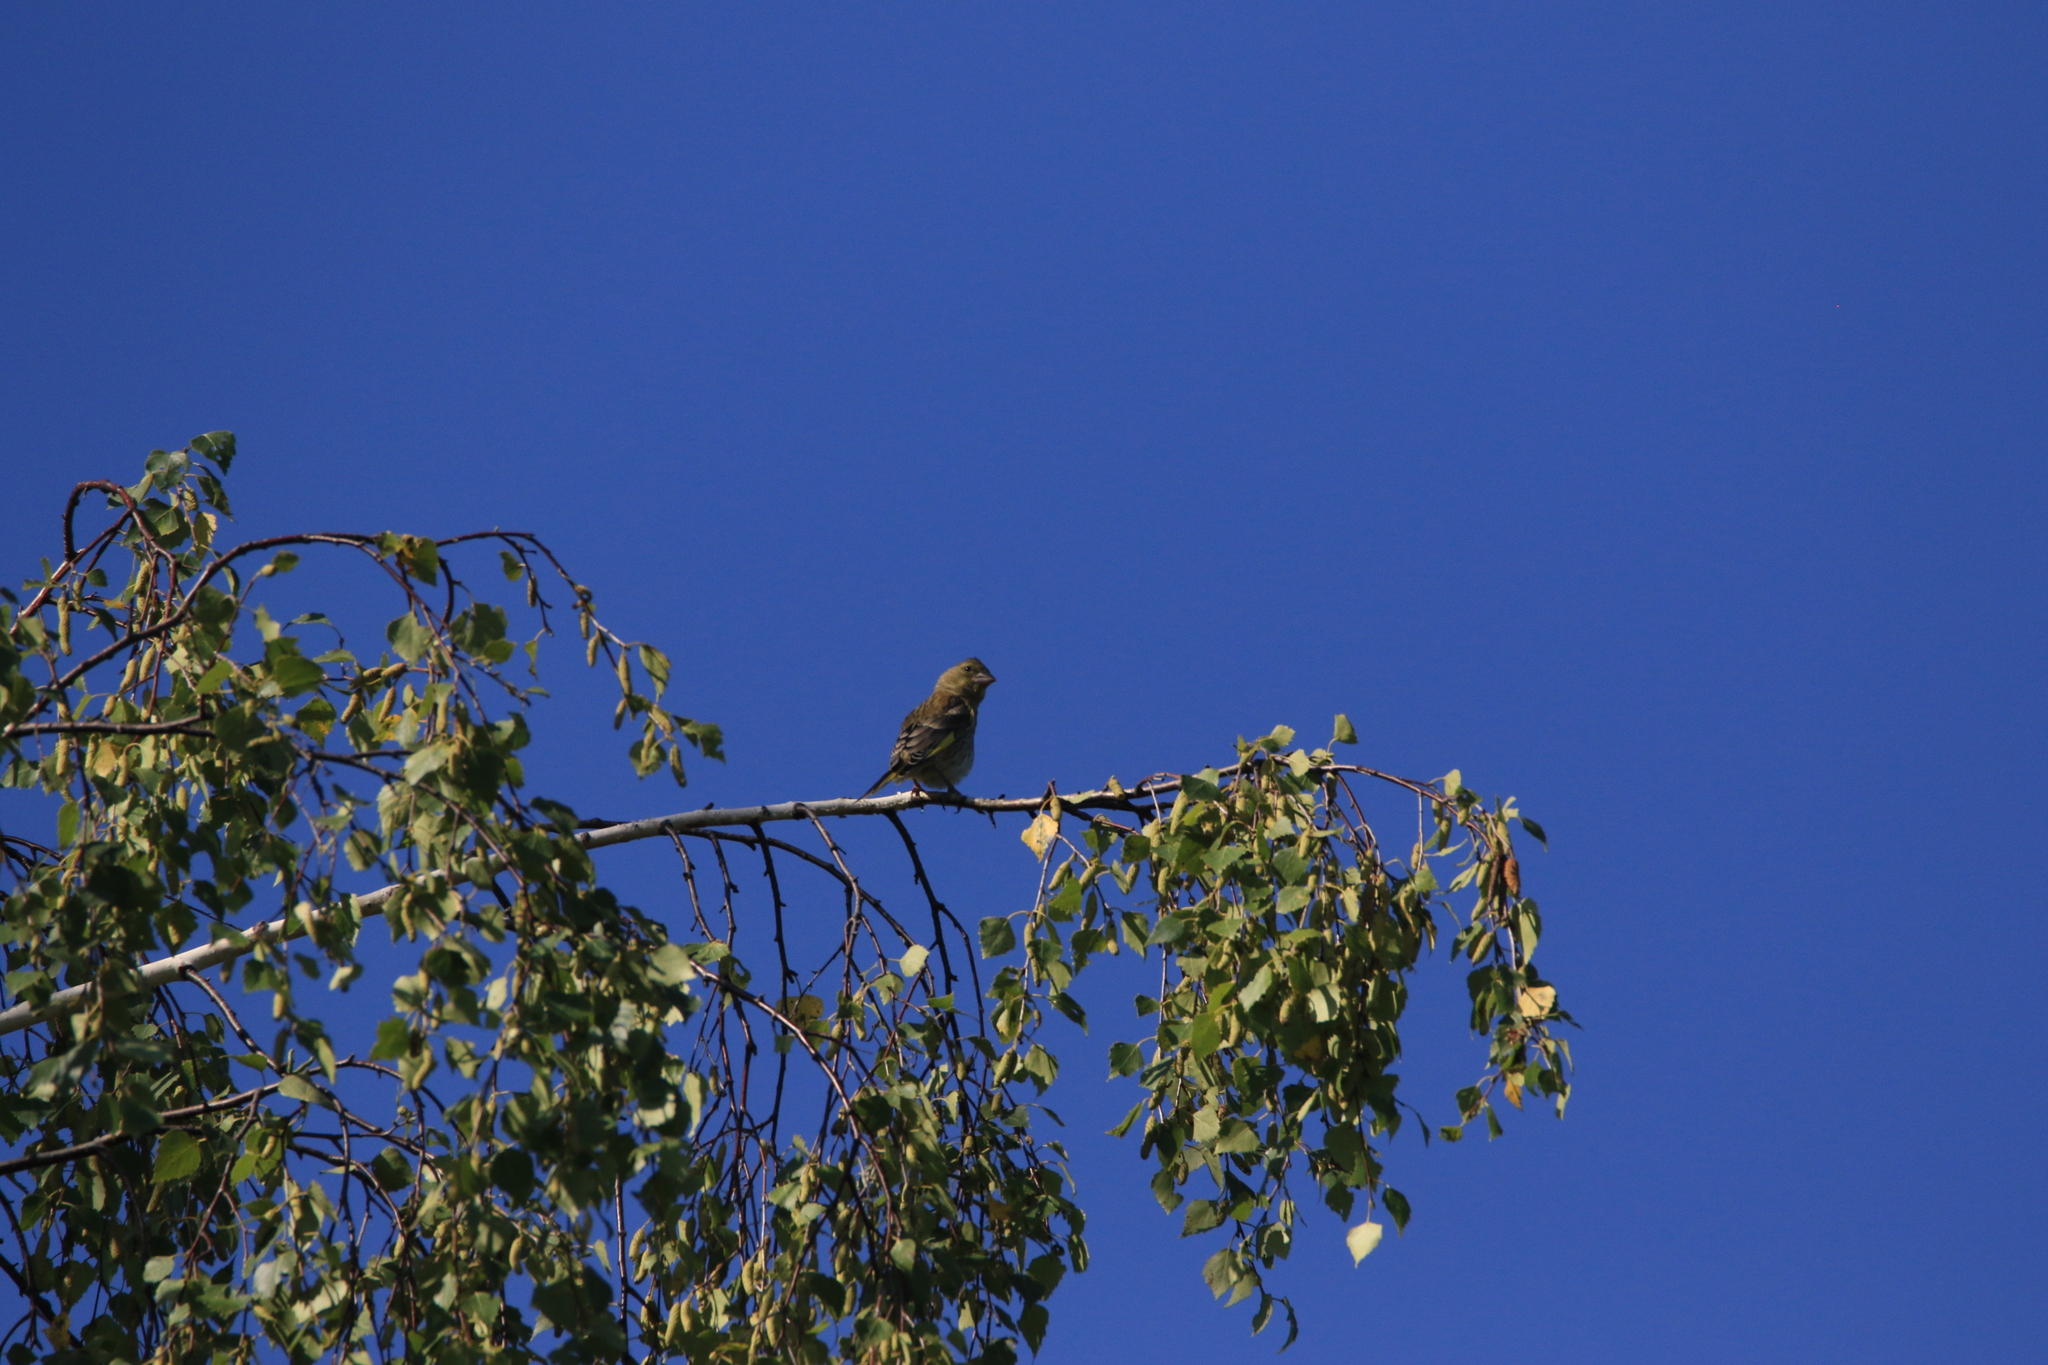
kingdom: Plantae
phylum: Tracheophyta
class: Liliopsida
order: Poales
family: Poaceae
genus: Chloris
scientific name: Chloris chloris
